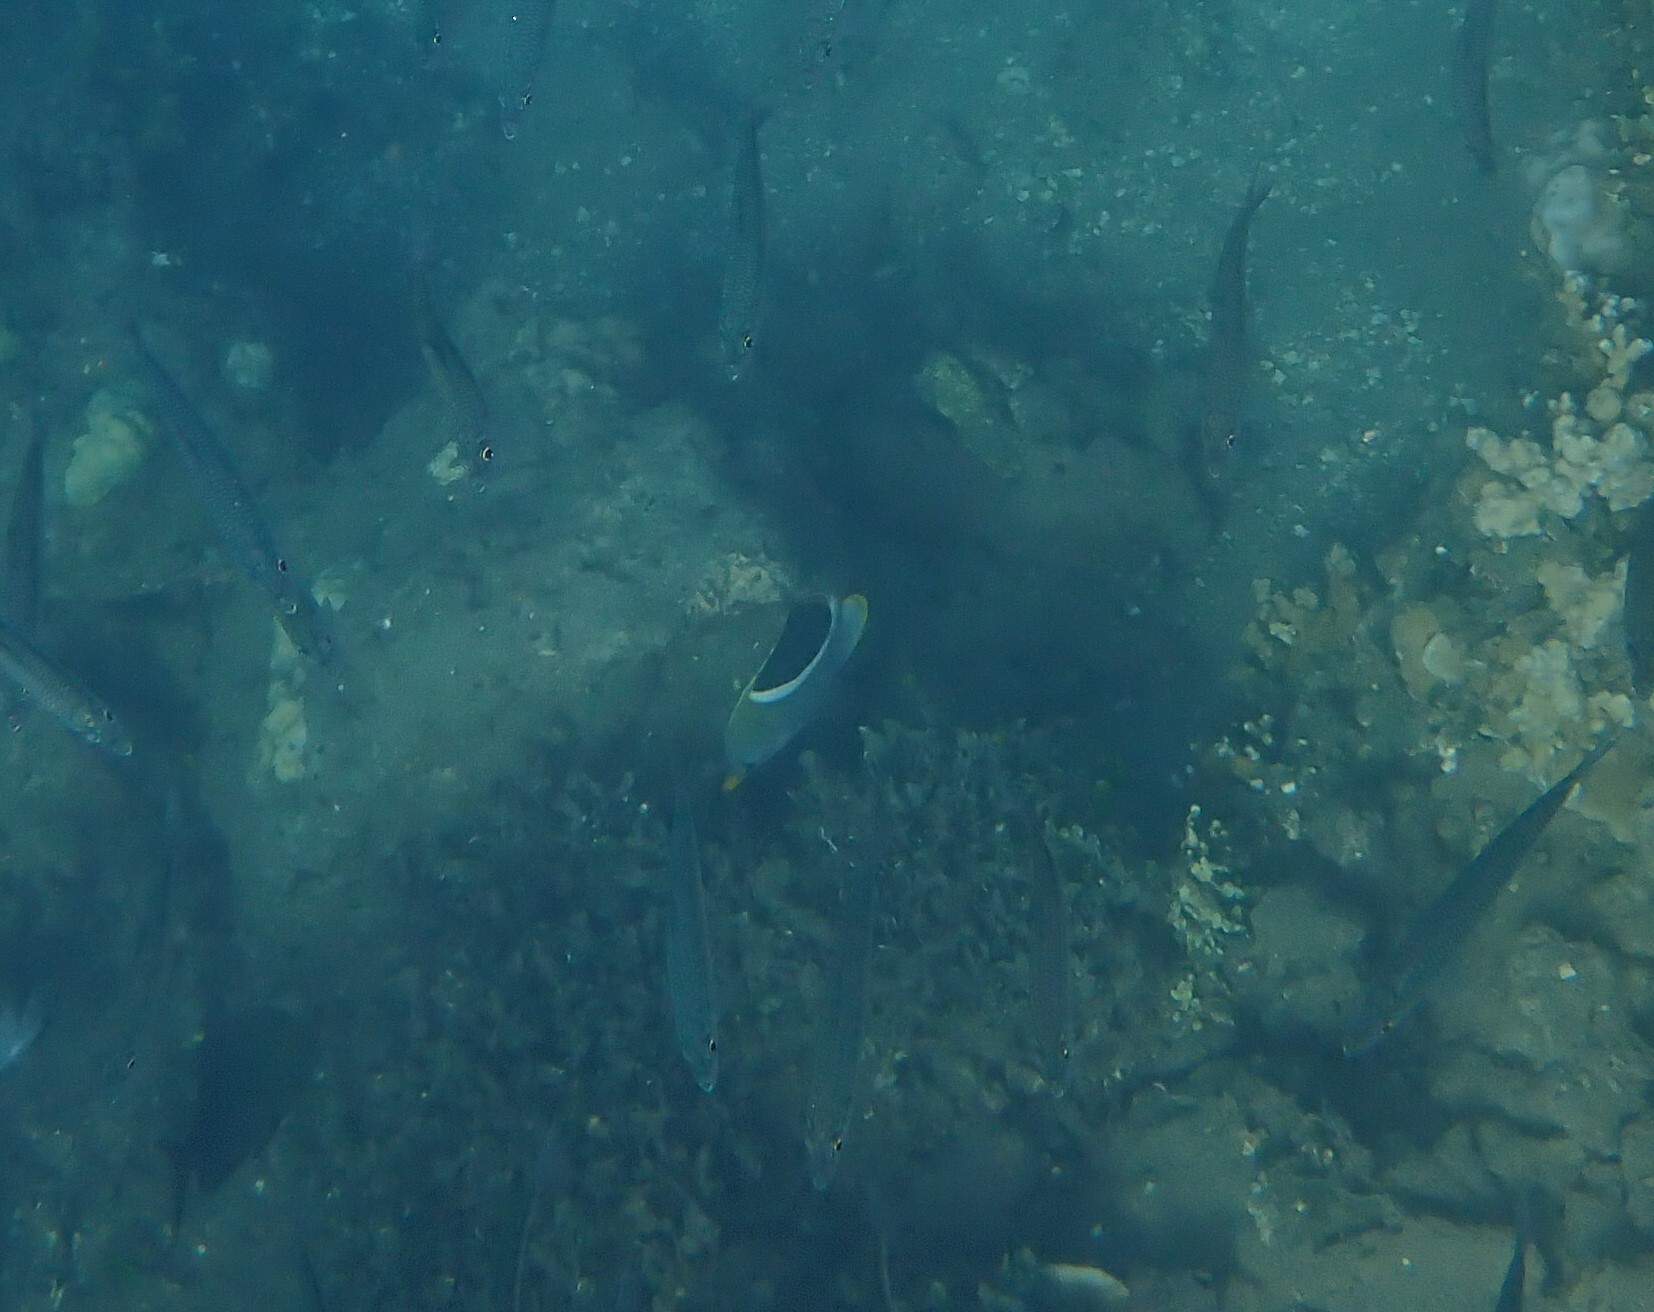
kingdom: Animalia
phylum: Chordata
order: Perciformes
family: Chaetodontidae
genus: Chaetodon
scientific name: Chaetodon ephippium
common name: Saddled butterflyfish
